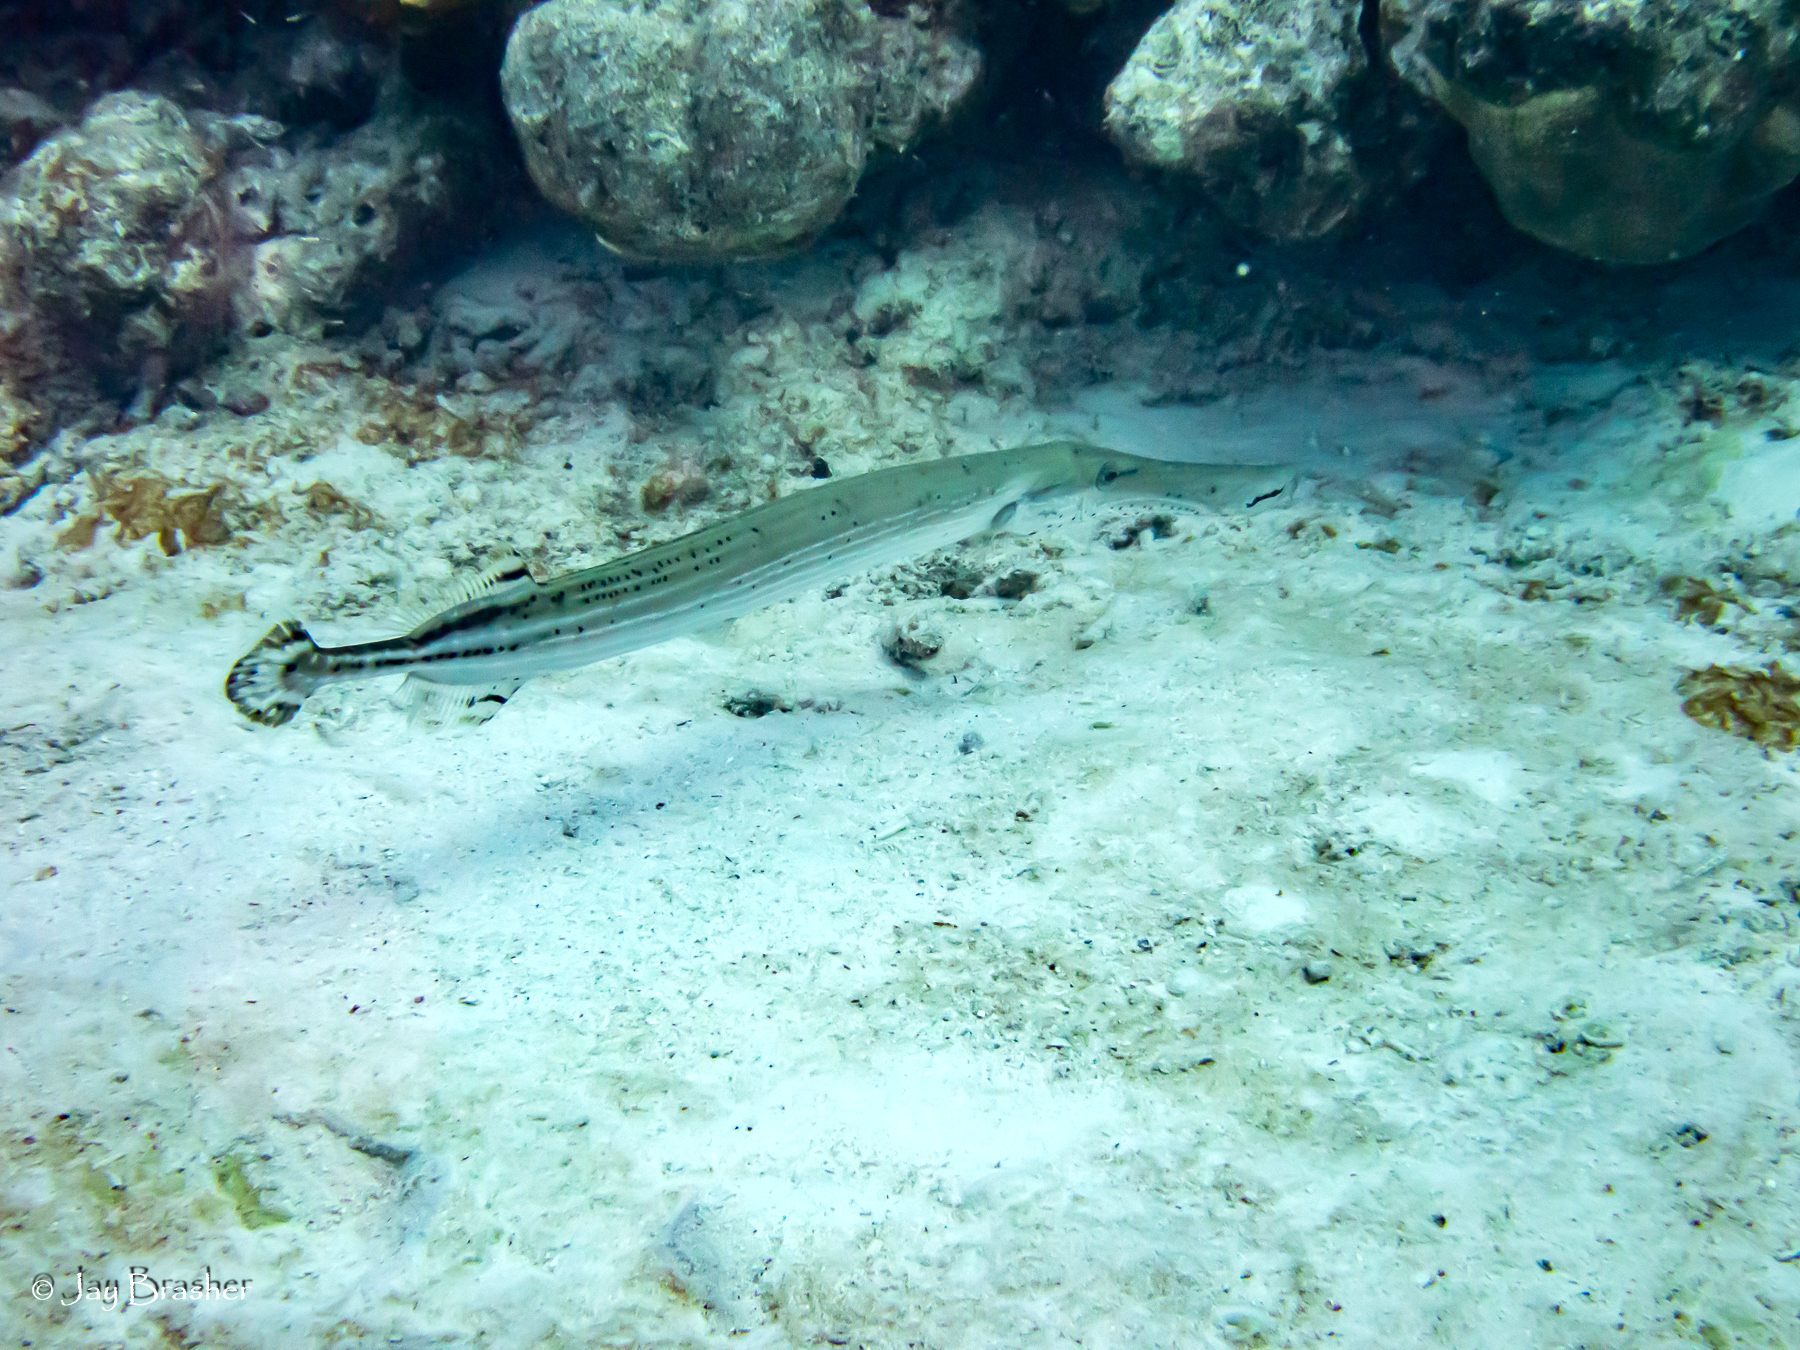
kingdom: Animalia
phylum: Chordata
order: Syngnathiformes
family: Aulostomidae
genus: Aulostomus
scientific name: Aulostomus maculatus
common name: West atlantic trumpetfish
